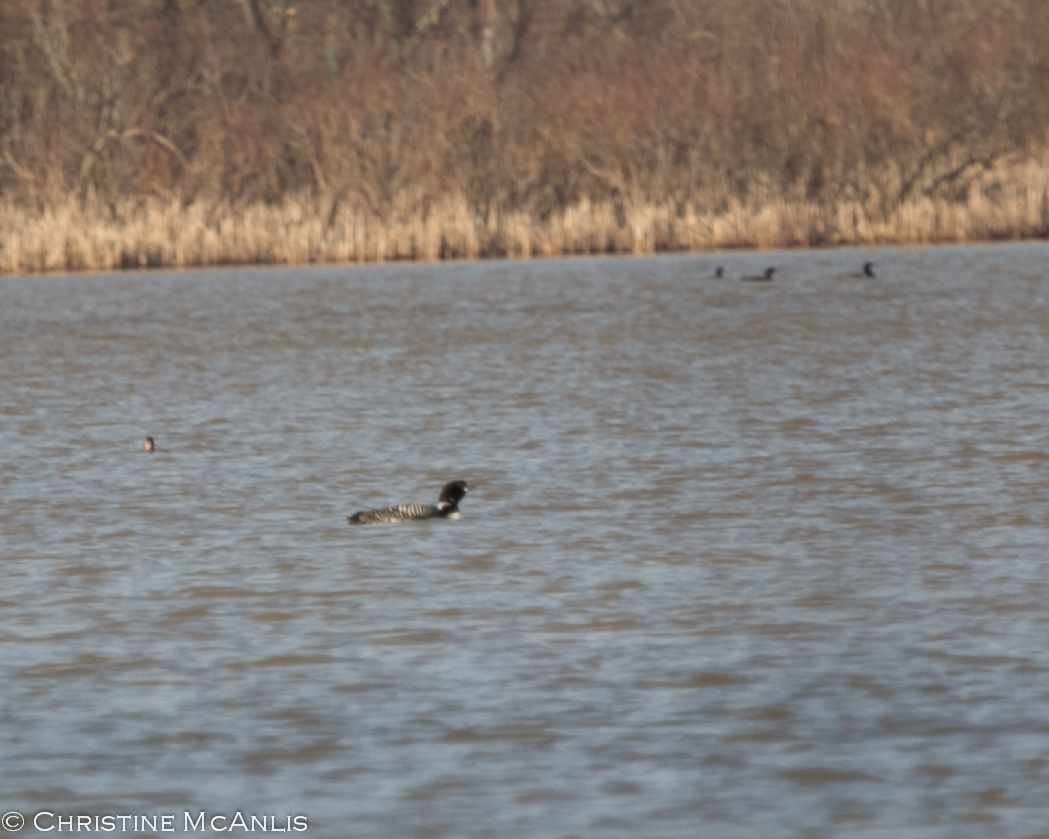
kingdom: Animalia
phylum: Chordata
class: Aves
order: Gaviiformes
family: Gaviidae
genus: Gavia
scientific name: Gavia immer
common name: Common loon
